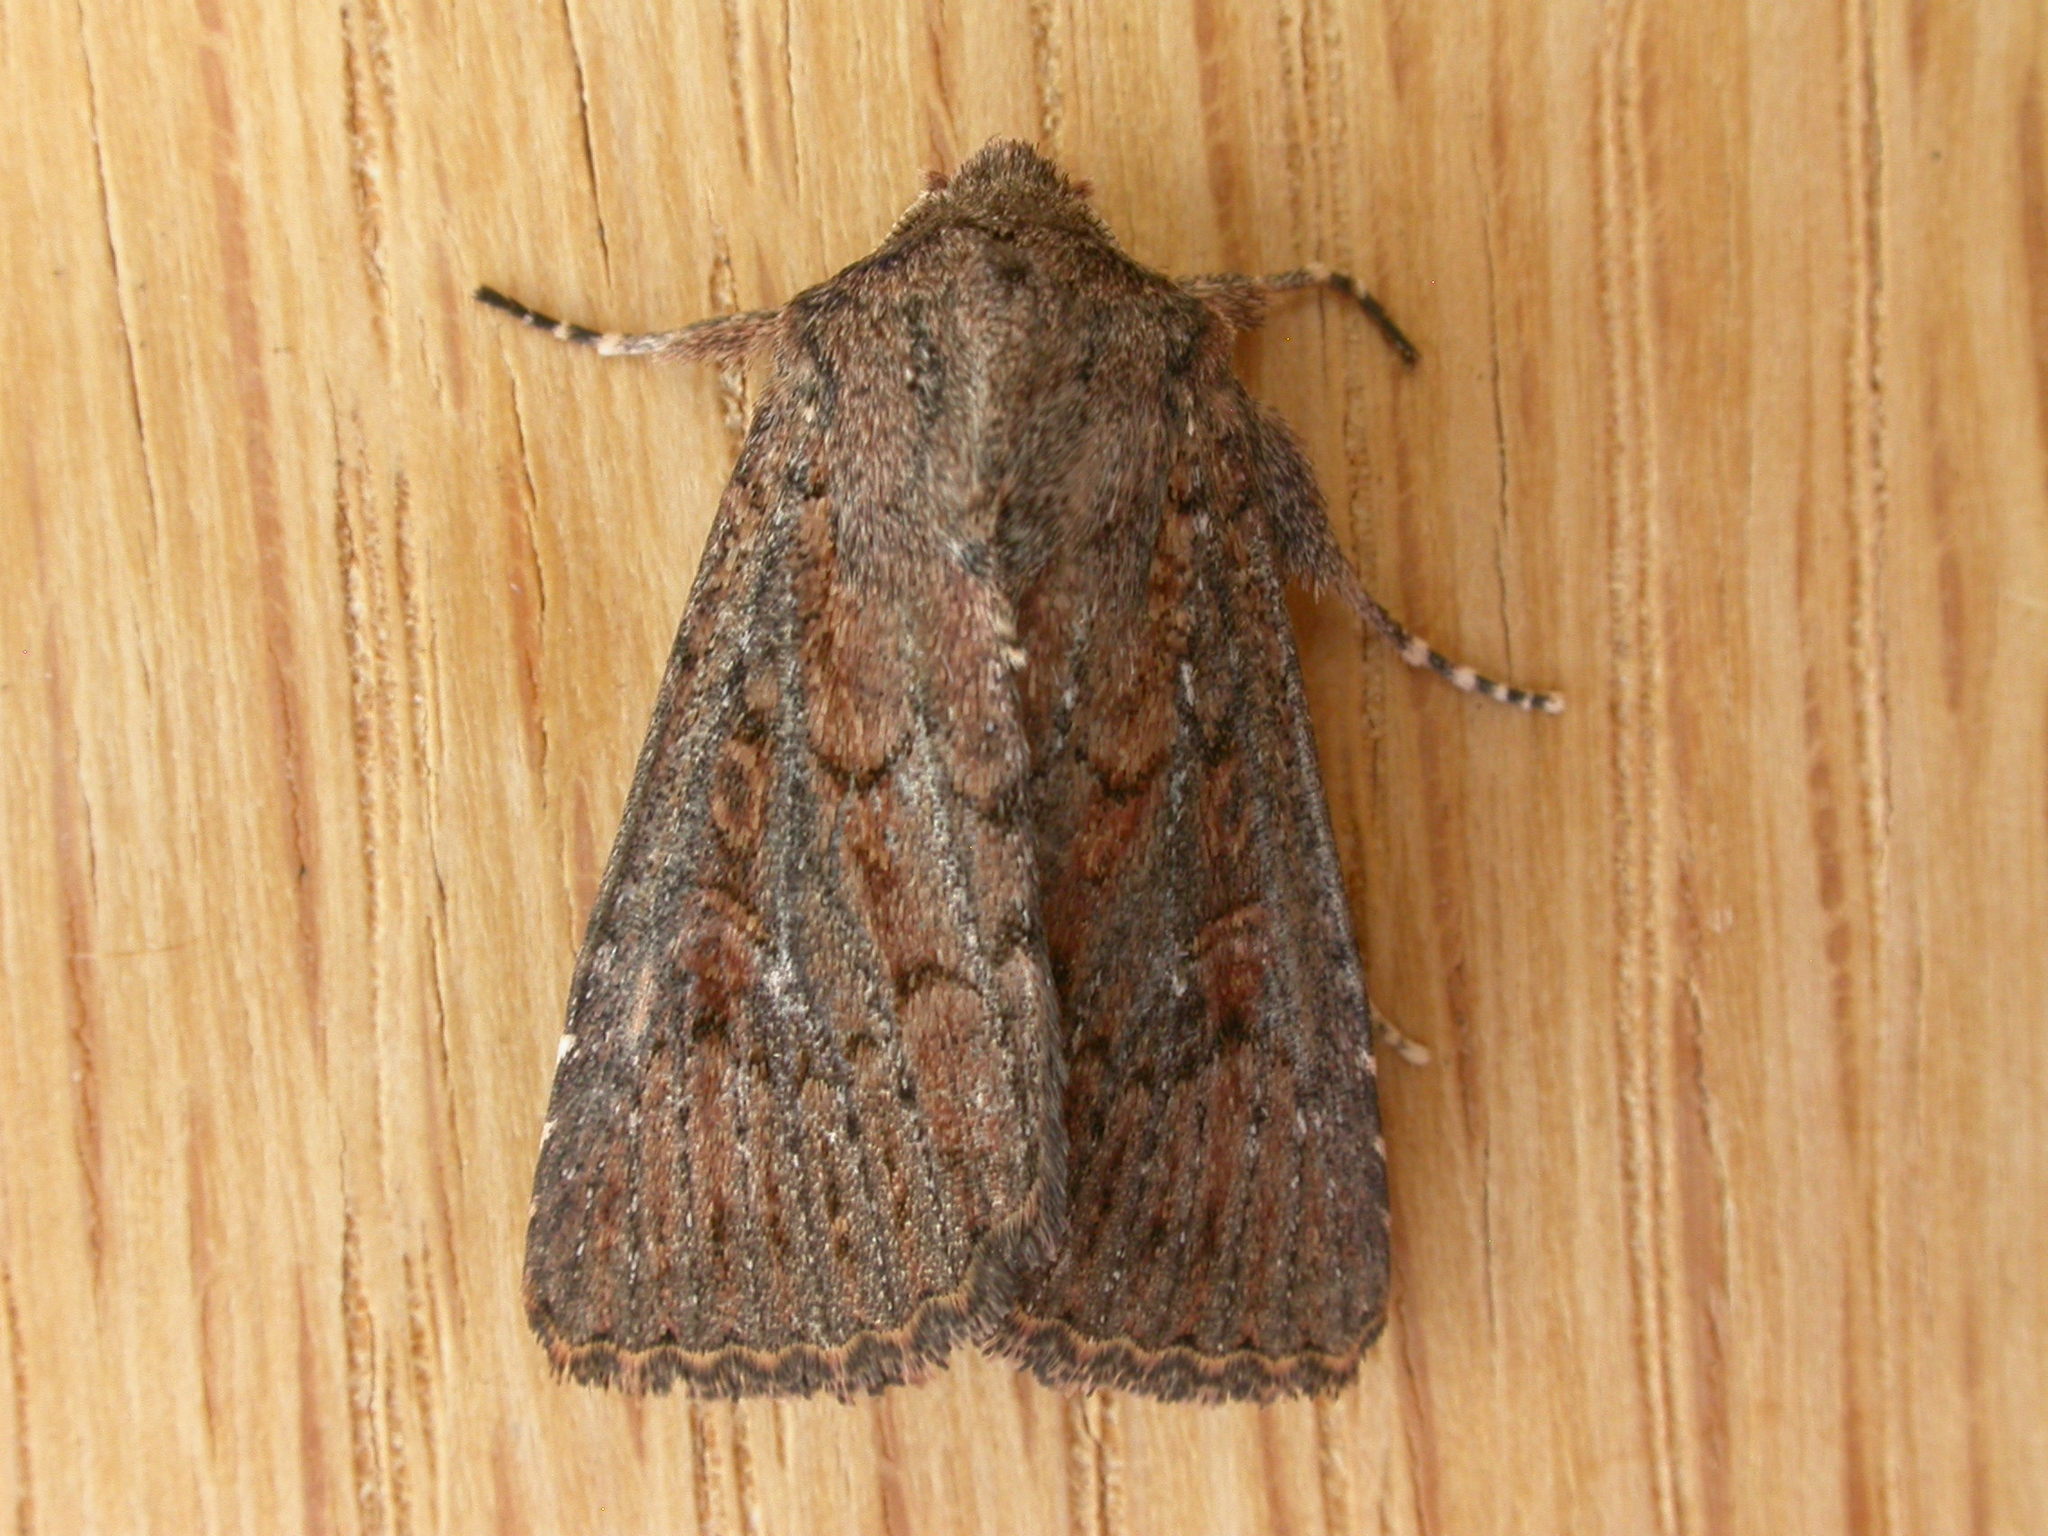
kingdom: Animalia
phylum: Arthropoda
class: Insecta
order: Lepidoptera
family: Noctuidae
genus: Dasygaster
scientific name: Dasygaster padockina
